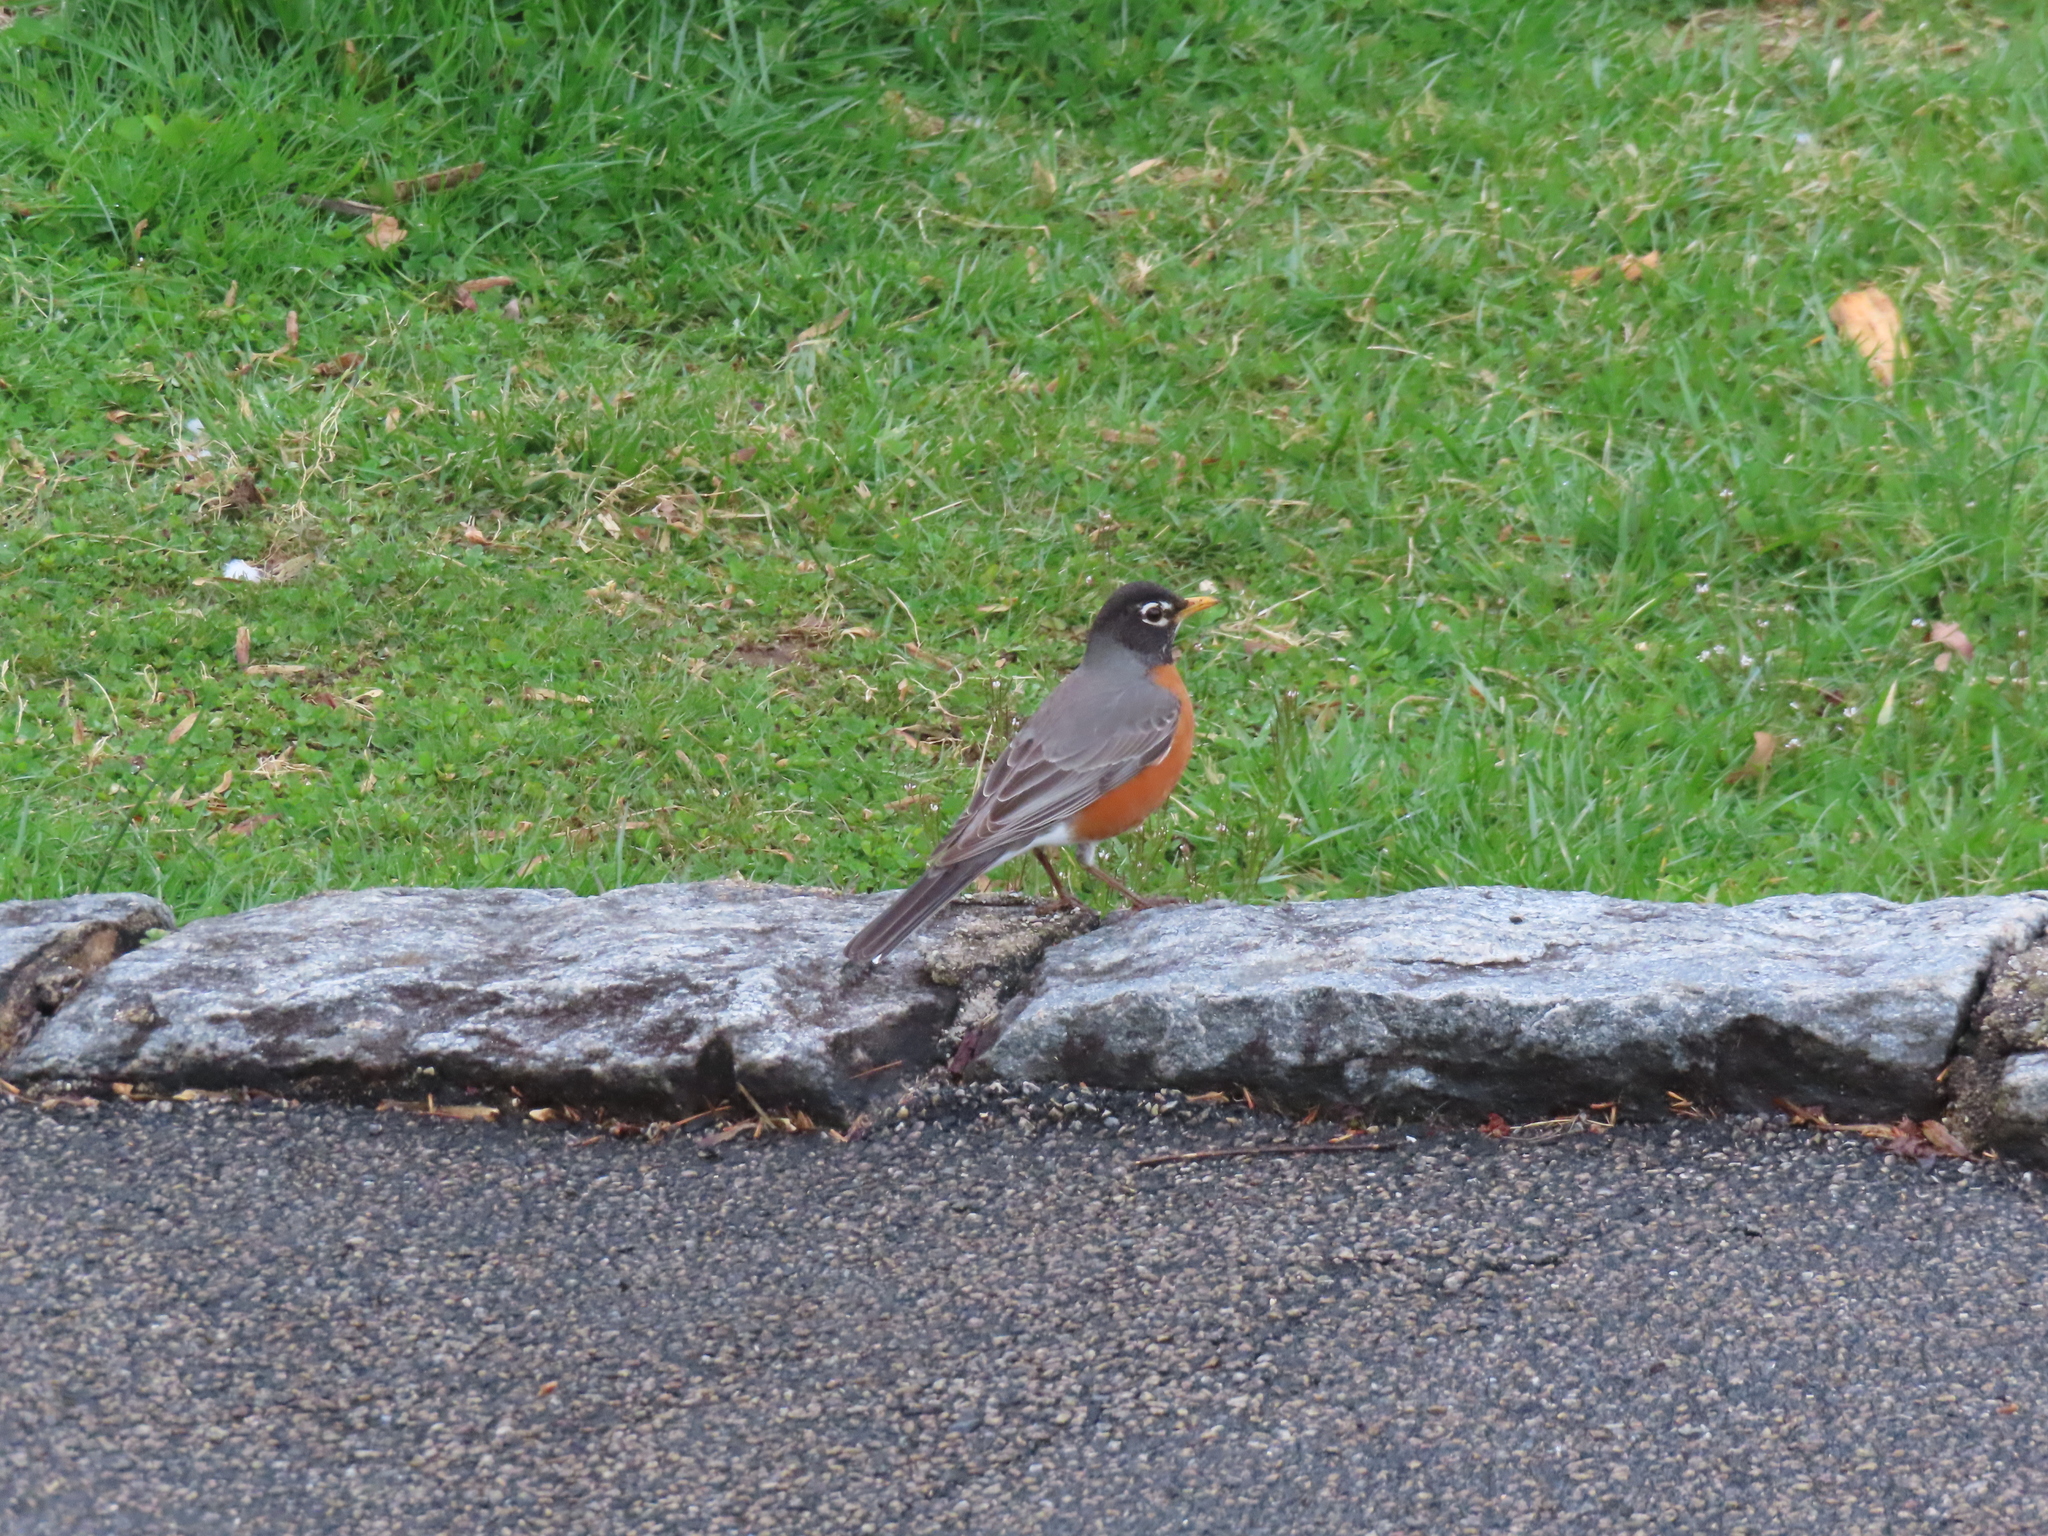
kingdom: Animalia
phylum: Chordata
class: Aves
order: Passeriformes
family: Turdidae
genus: Turdus
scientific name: Turdus migratorius
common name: American robin
